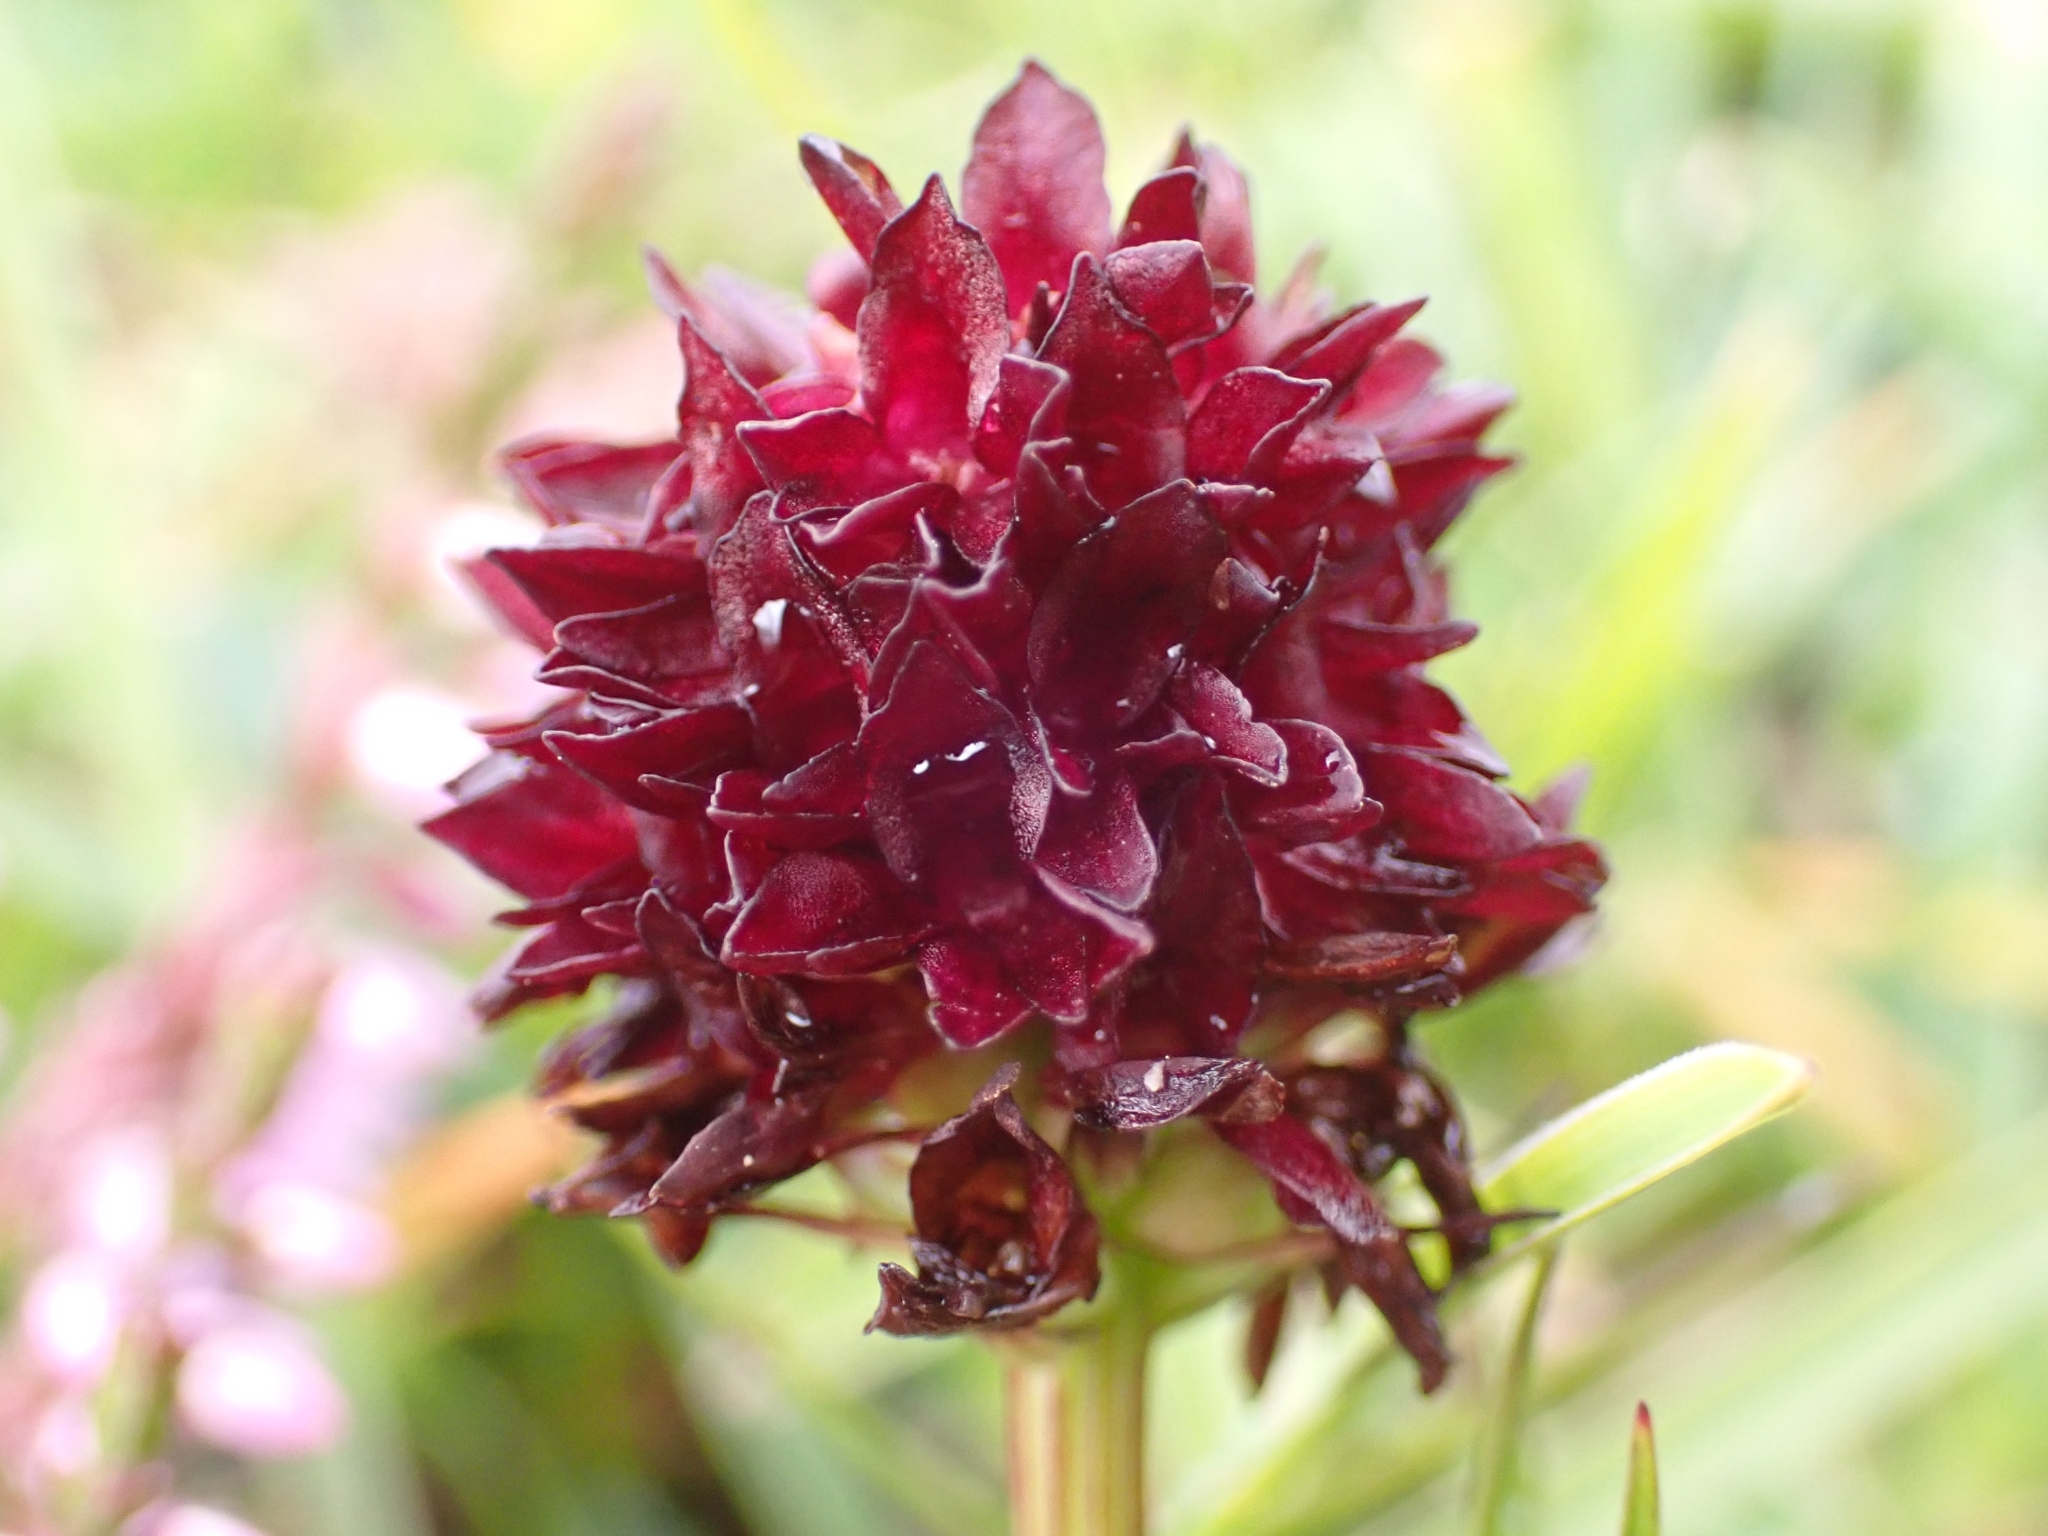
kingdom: Plantae
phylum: Tracheophyta
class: Liliopsida
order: Asparagales
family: Orchidaceae
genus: Gymnadenia
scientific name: Gymnadenia rhellicani
